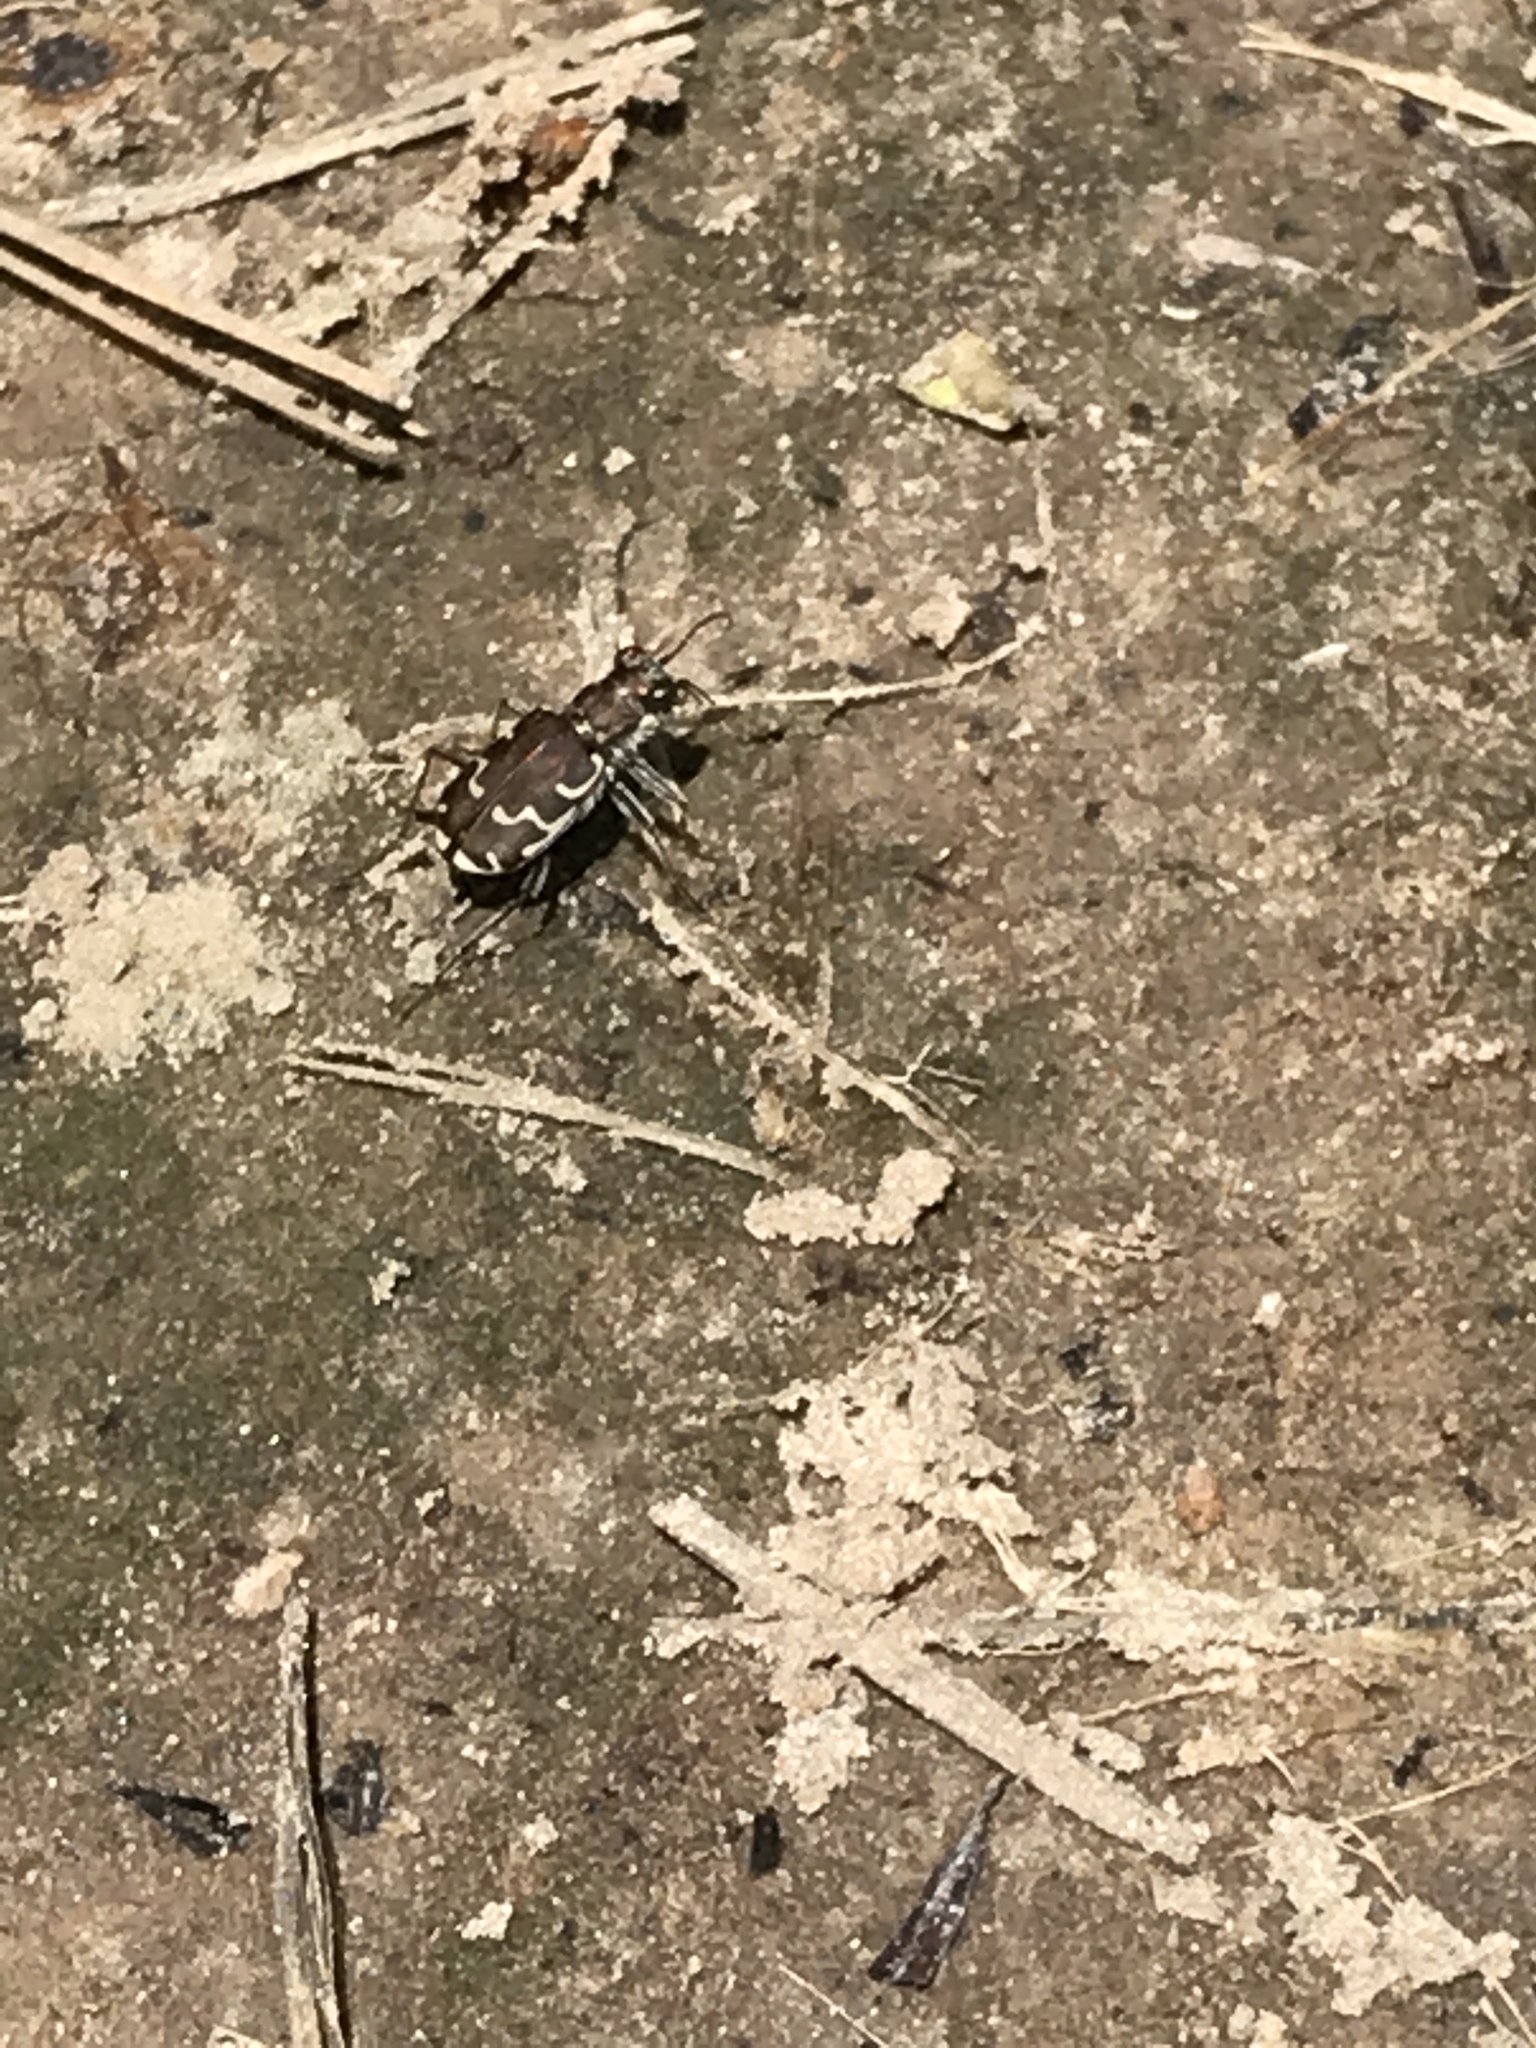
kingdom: Animalia
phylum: Arthropoda
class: Insecta
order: Coleoptera
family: Carabidae
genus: Cicindela
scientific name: Cicindela repanda
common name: Bronzed tiger beetle
